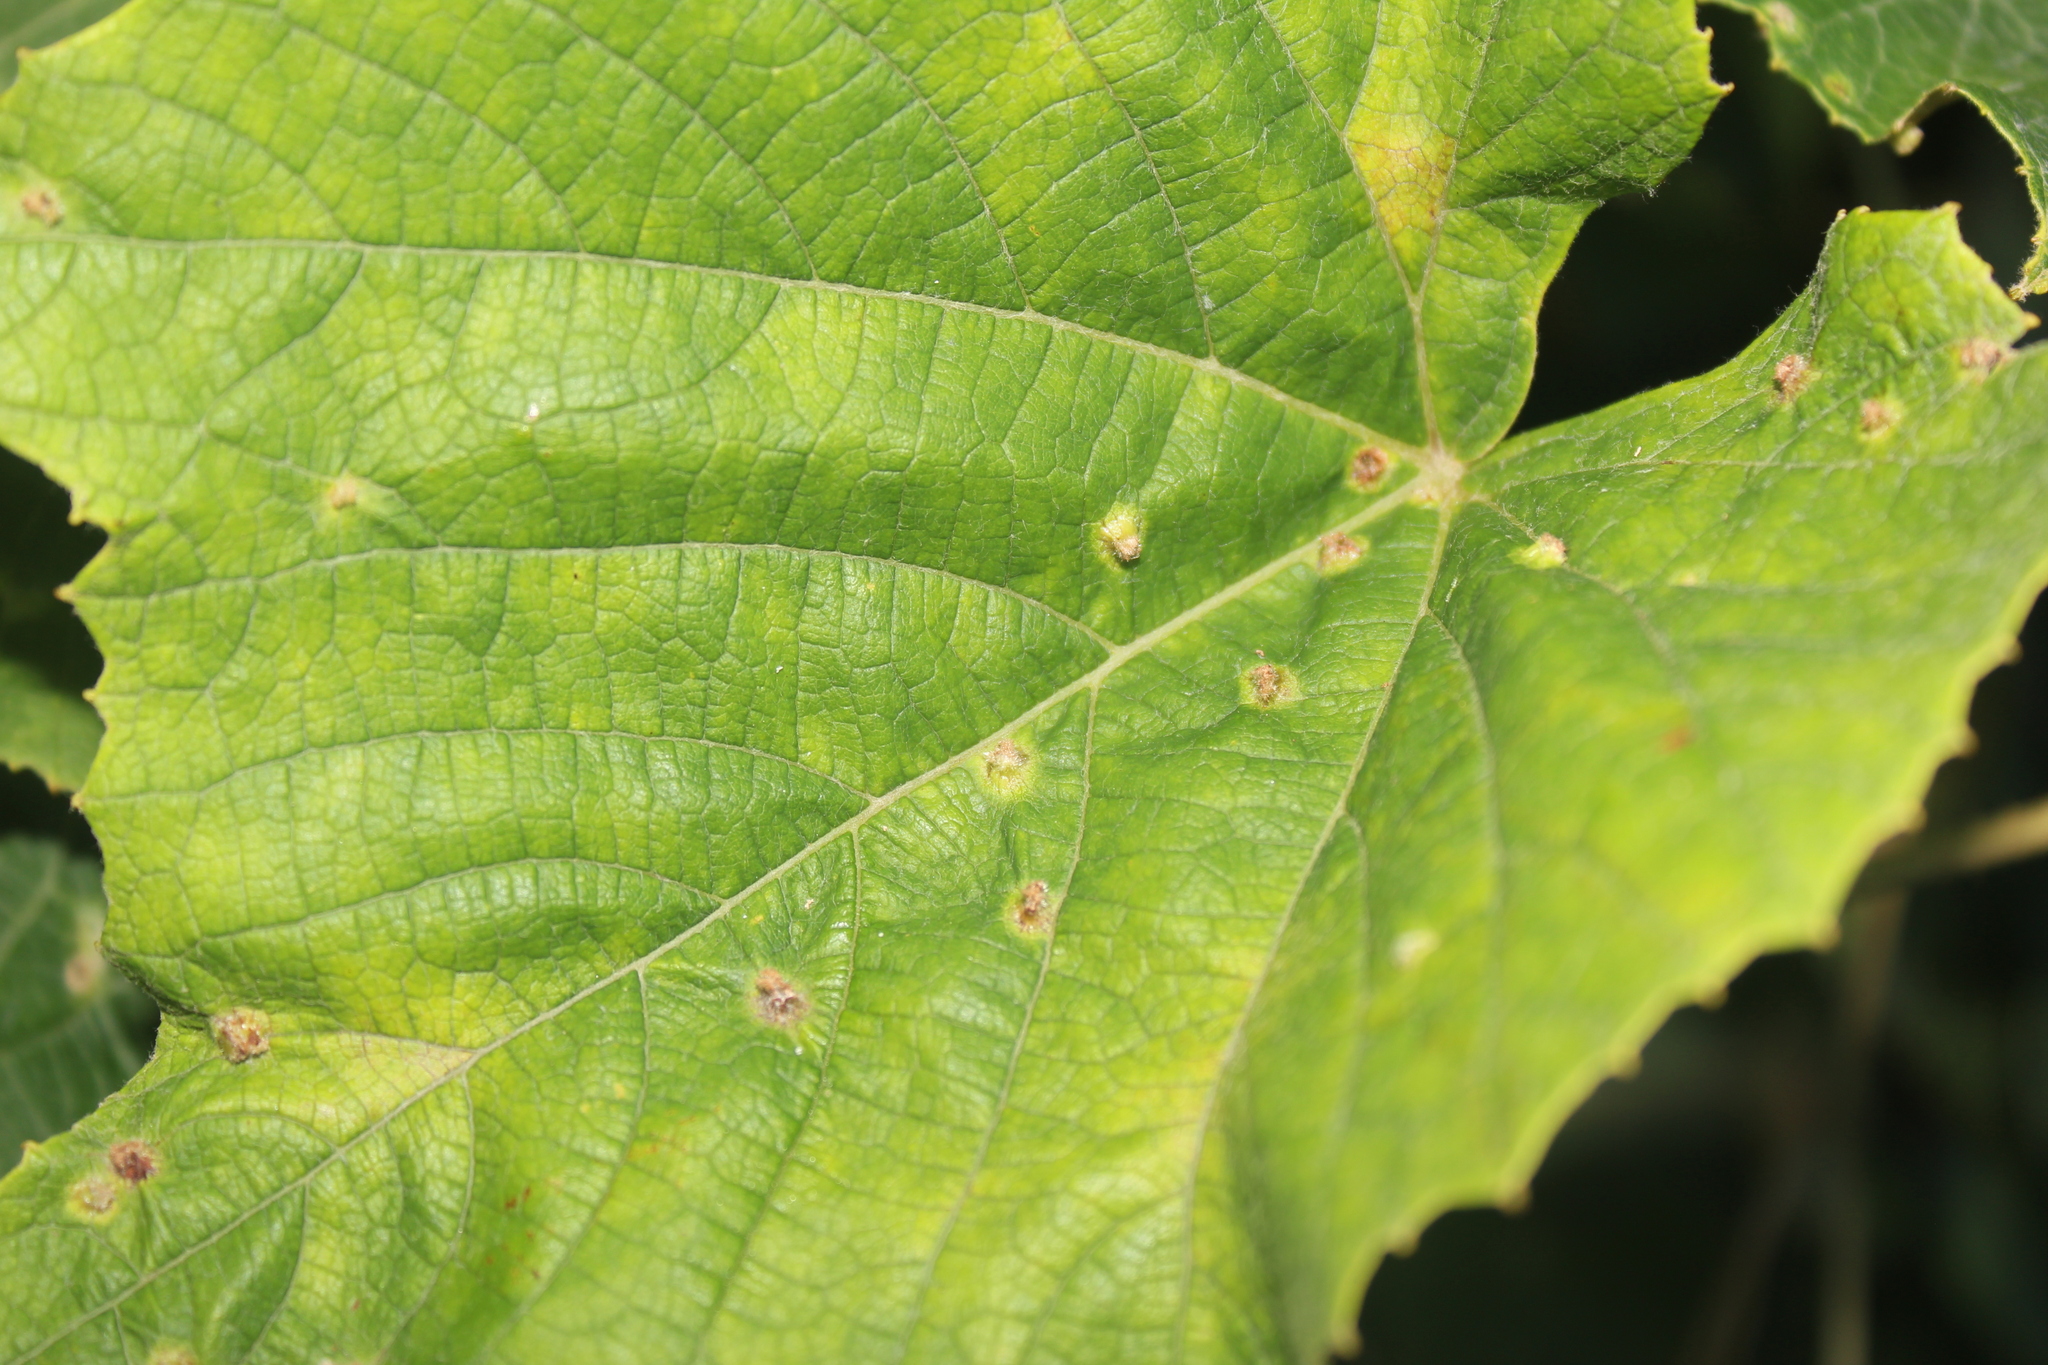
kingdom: Animalia
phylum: Arthropoda
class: Insecta
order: Hemiptera
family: Phylloxeridae
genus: Daktulosphaira
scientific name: Daktulosphaira vitifoliae
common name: Grape phylloxera
